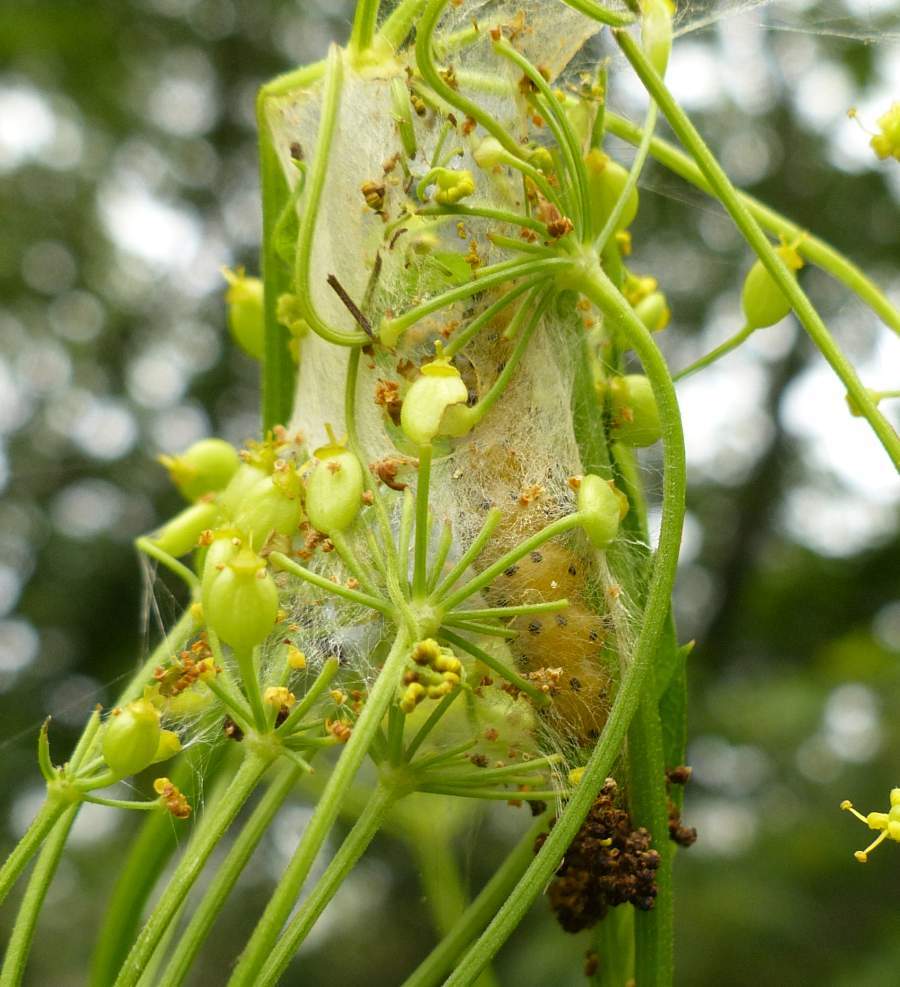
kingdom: Animalia
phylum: Arthropoda
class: Insecta
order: Lepidoptera
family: Depressariidae
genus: Depressaria
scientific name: Depressaria radiella
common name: Parsnip moth
